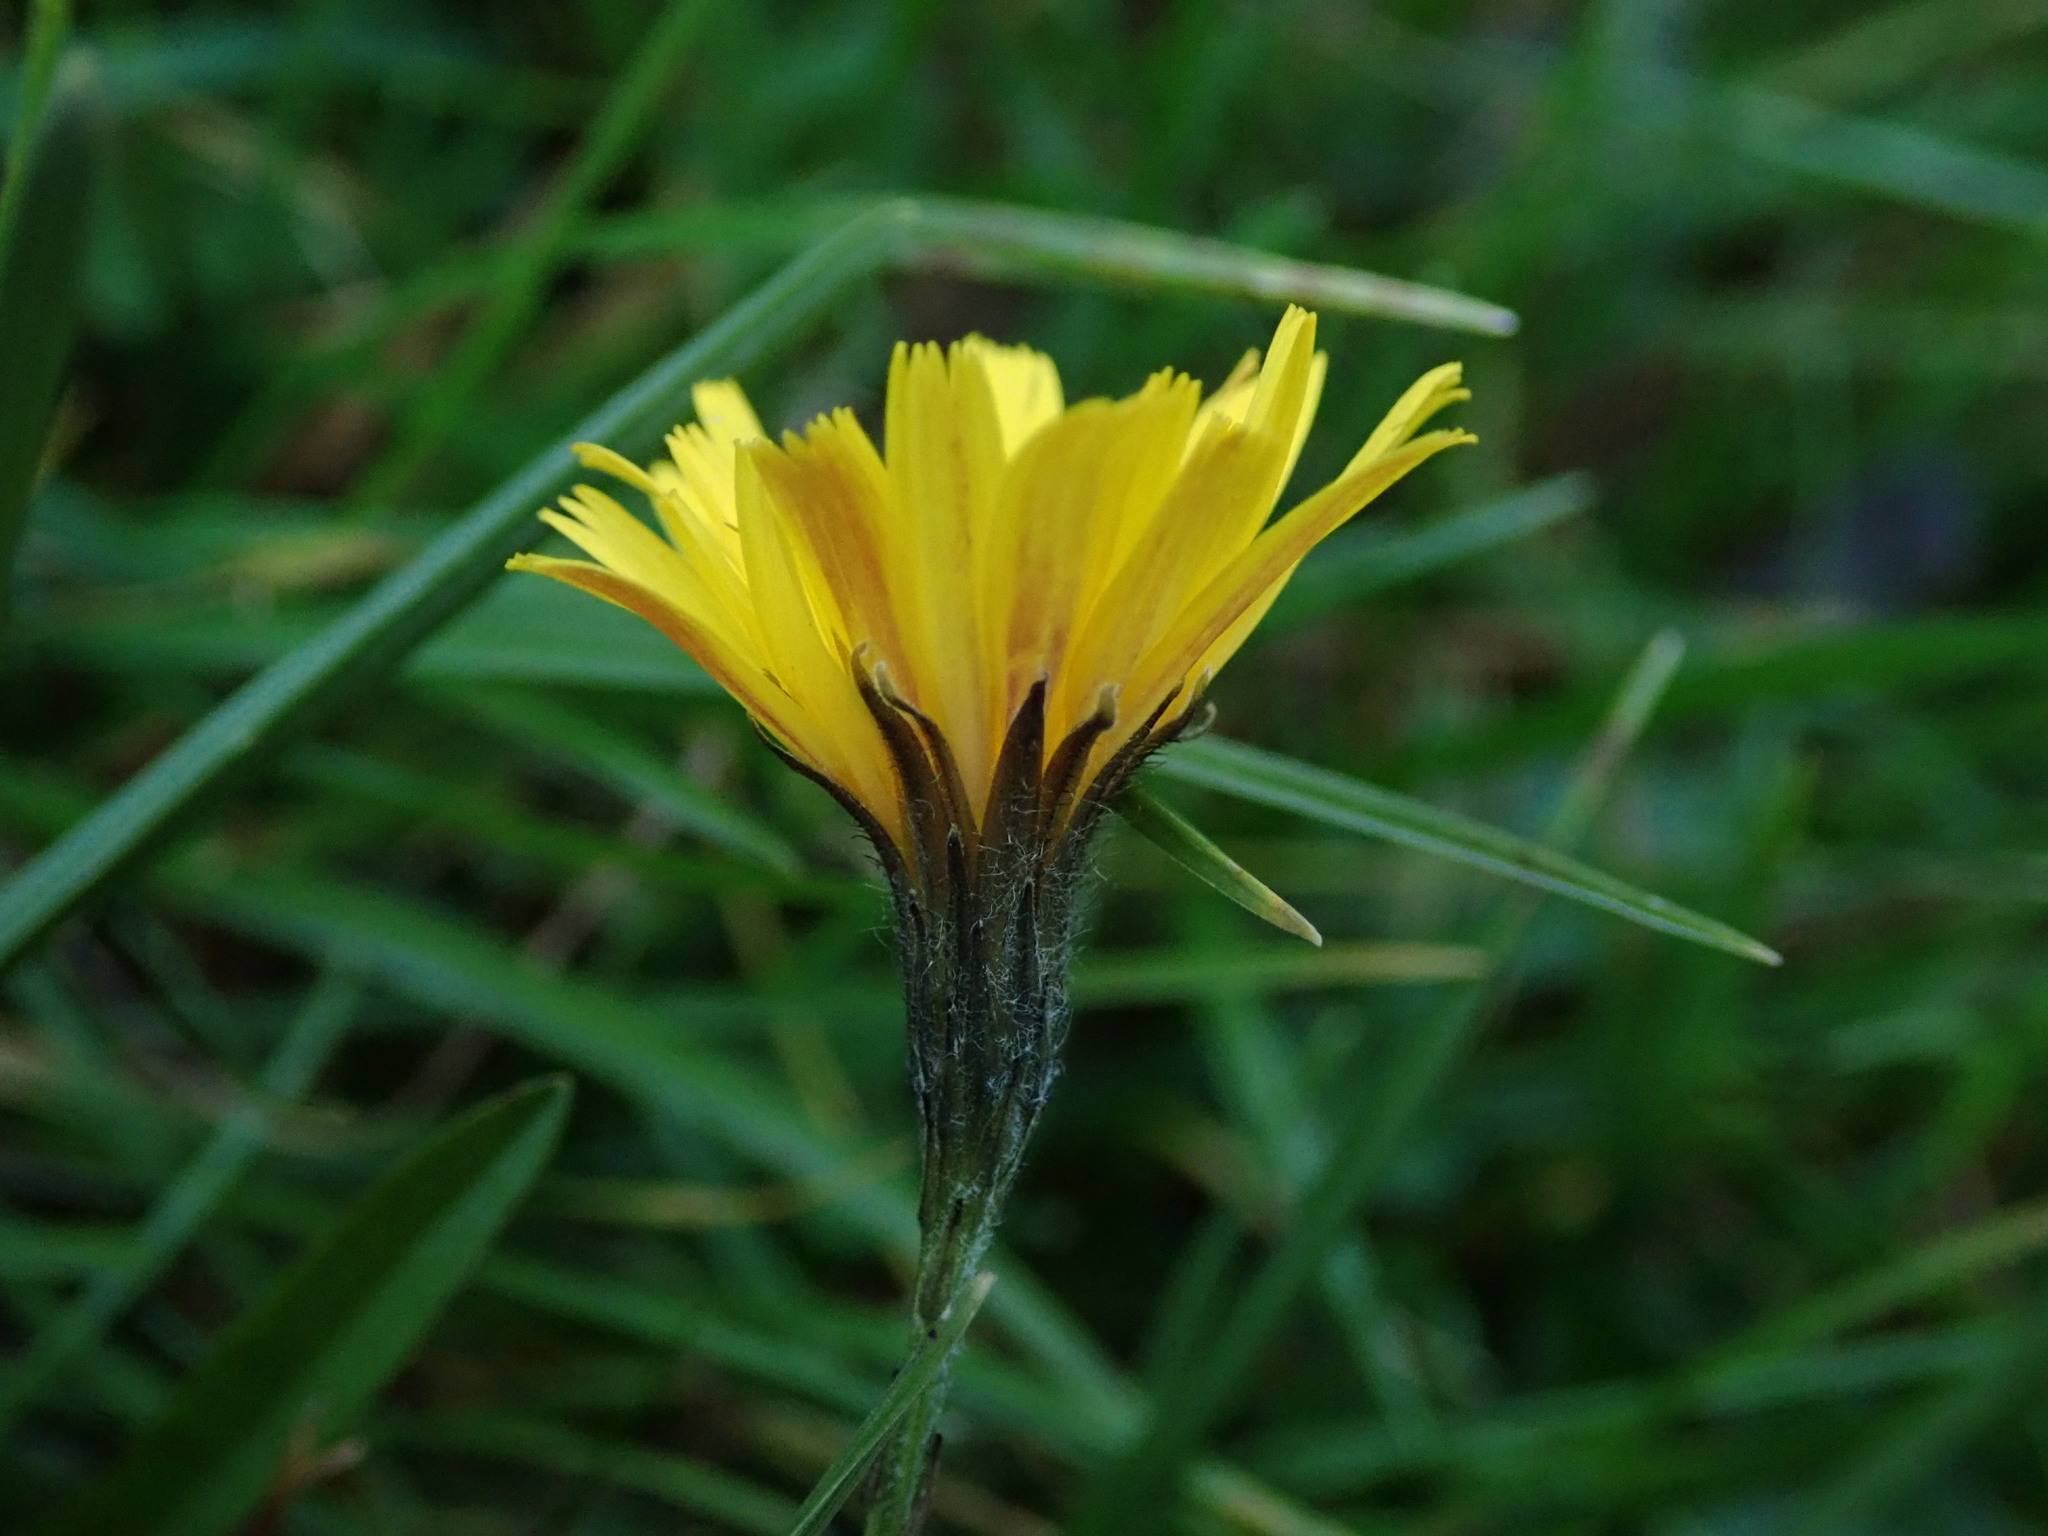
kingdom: Plantae
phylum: Tracheophyta
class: Magnoliopsida
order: Asterales
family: Asteraceae
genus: Scorzoneroides
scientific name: Scorzoneroides autumnalis
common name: Autumn hawkbit
